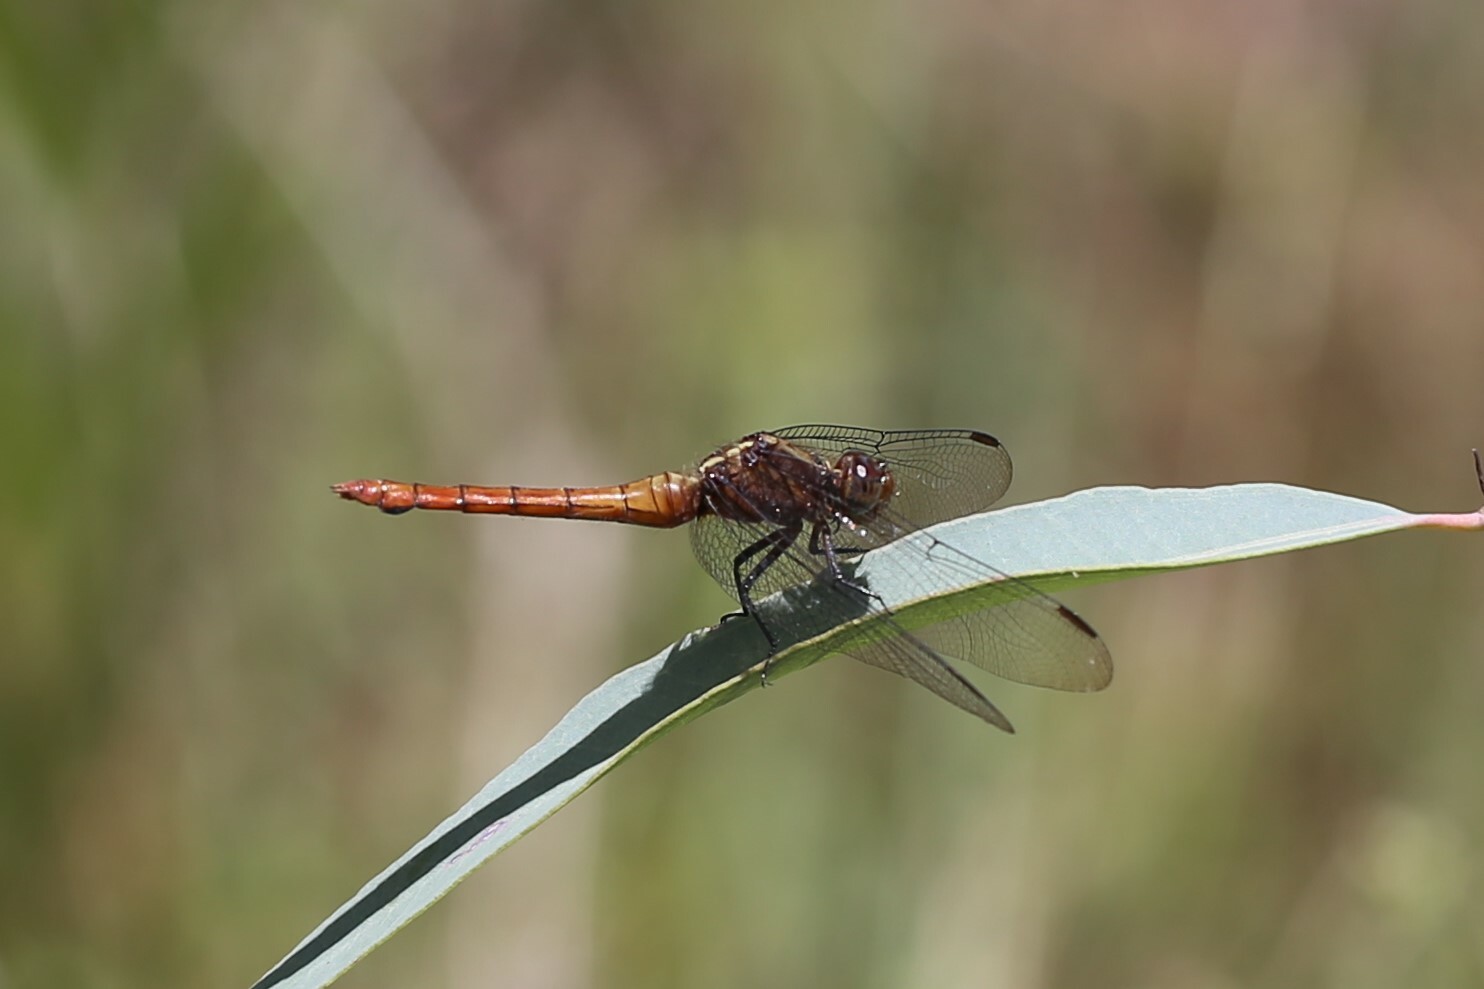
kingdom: Animalia
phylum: Arthropoda
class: Insecta
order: Odonata
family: Libellulidae
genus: Orthetrum
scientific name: Orthetrum villosovittatum
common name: Firery skimmer
